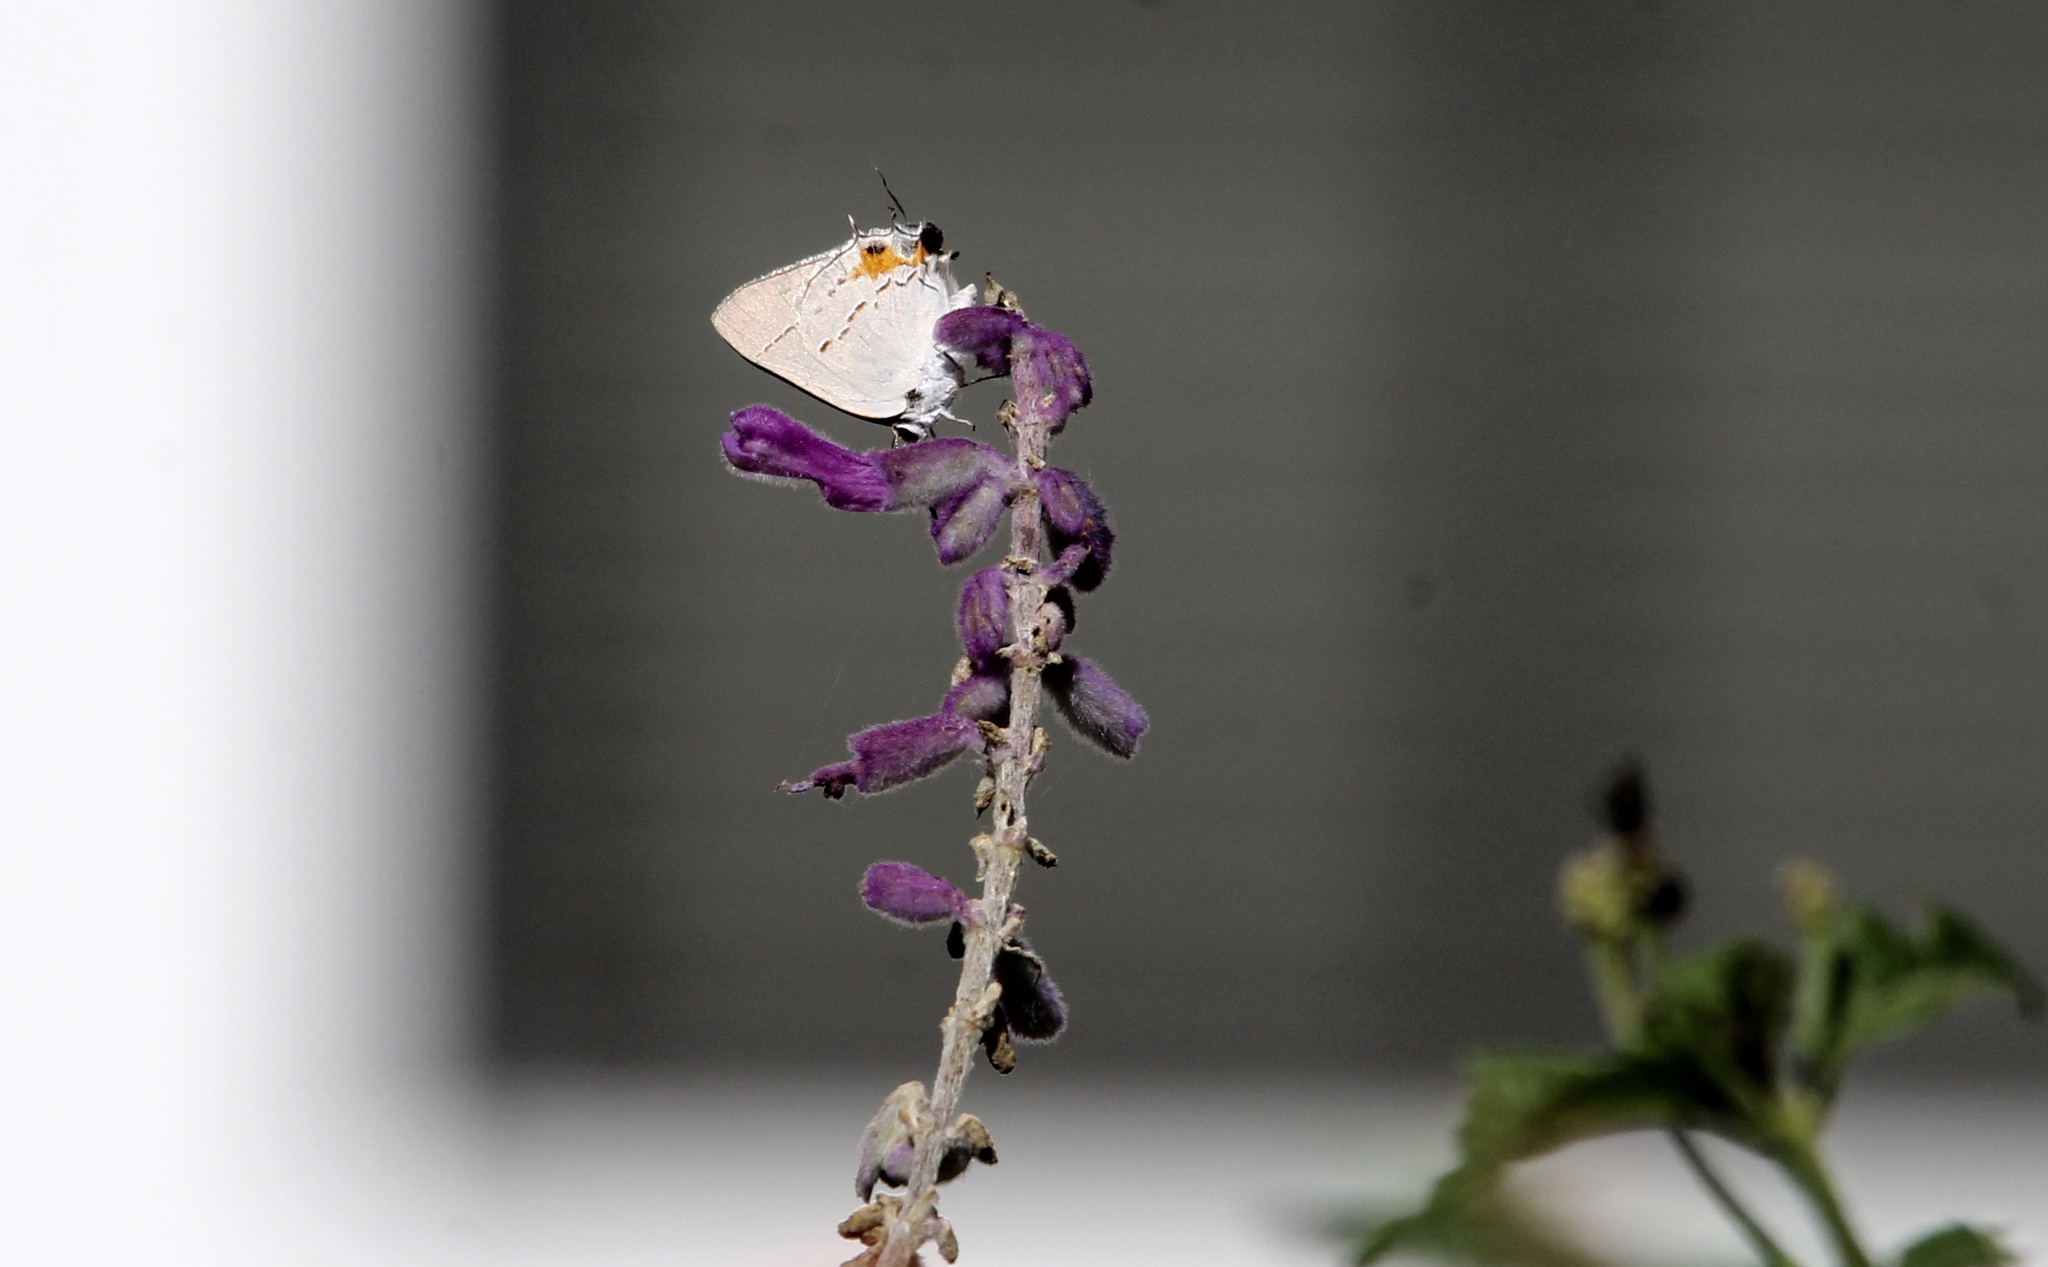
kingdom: Animalia
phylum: Arthropoda
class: Insecta
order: Lepidoptera
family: Lycaenidae
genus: Strymon
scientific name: Strymon melinus
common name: Gray hairstreak
